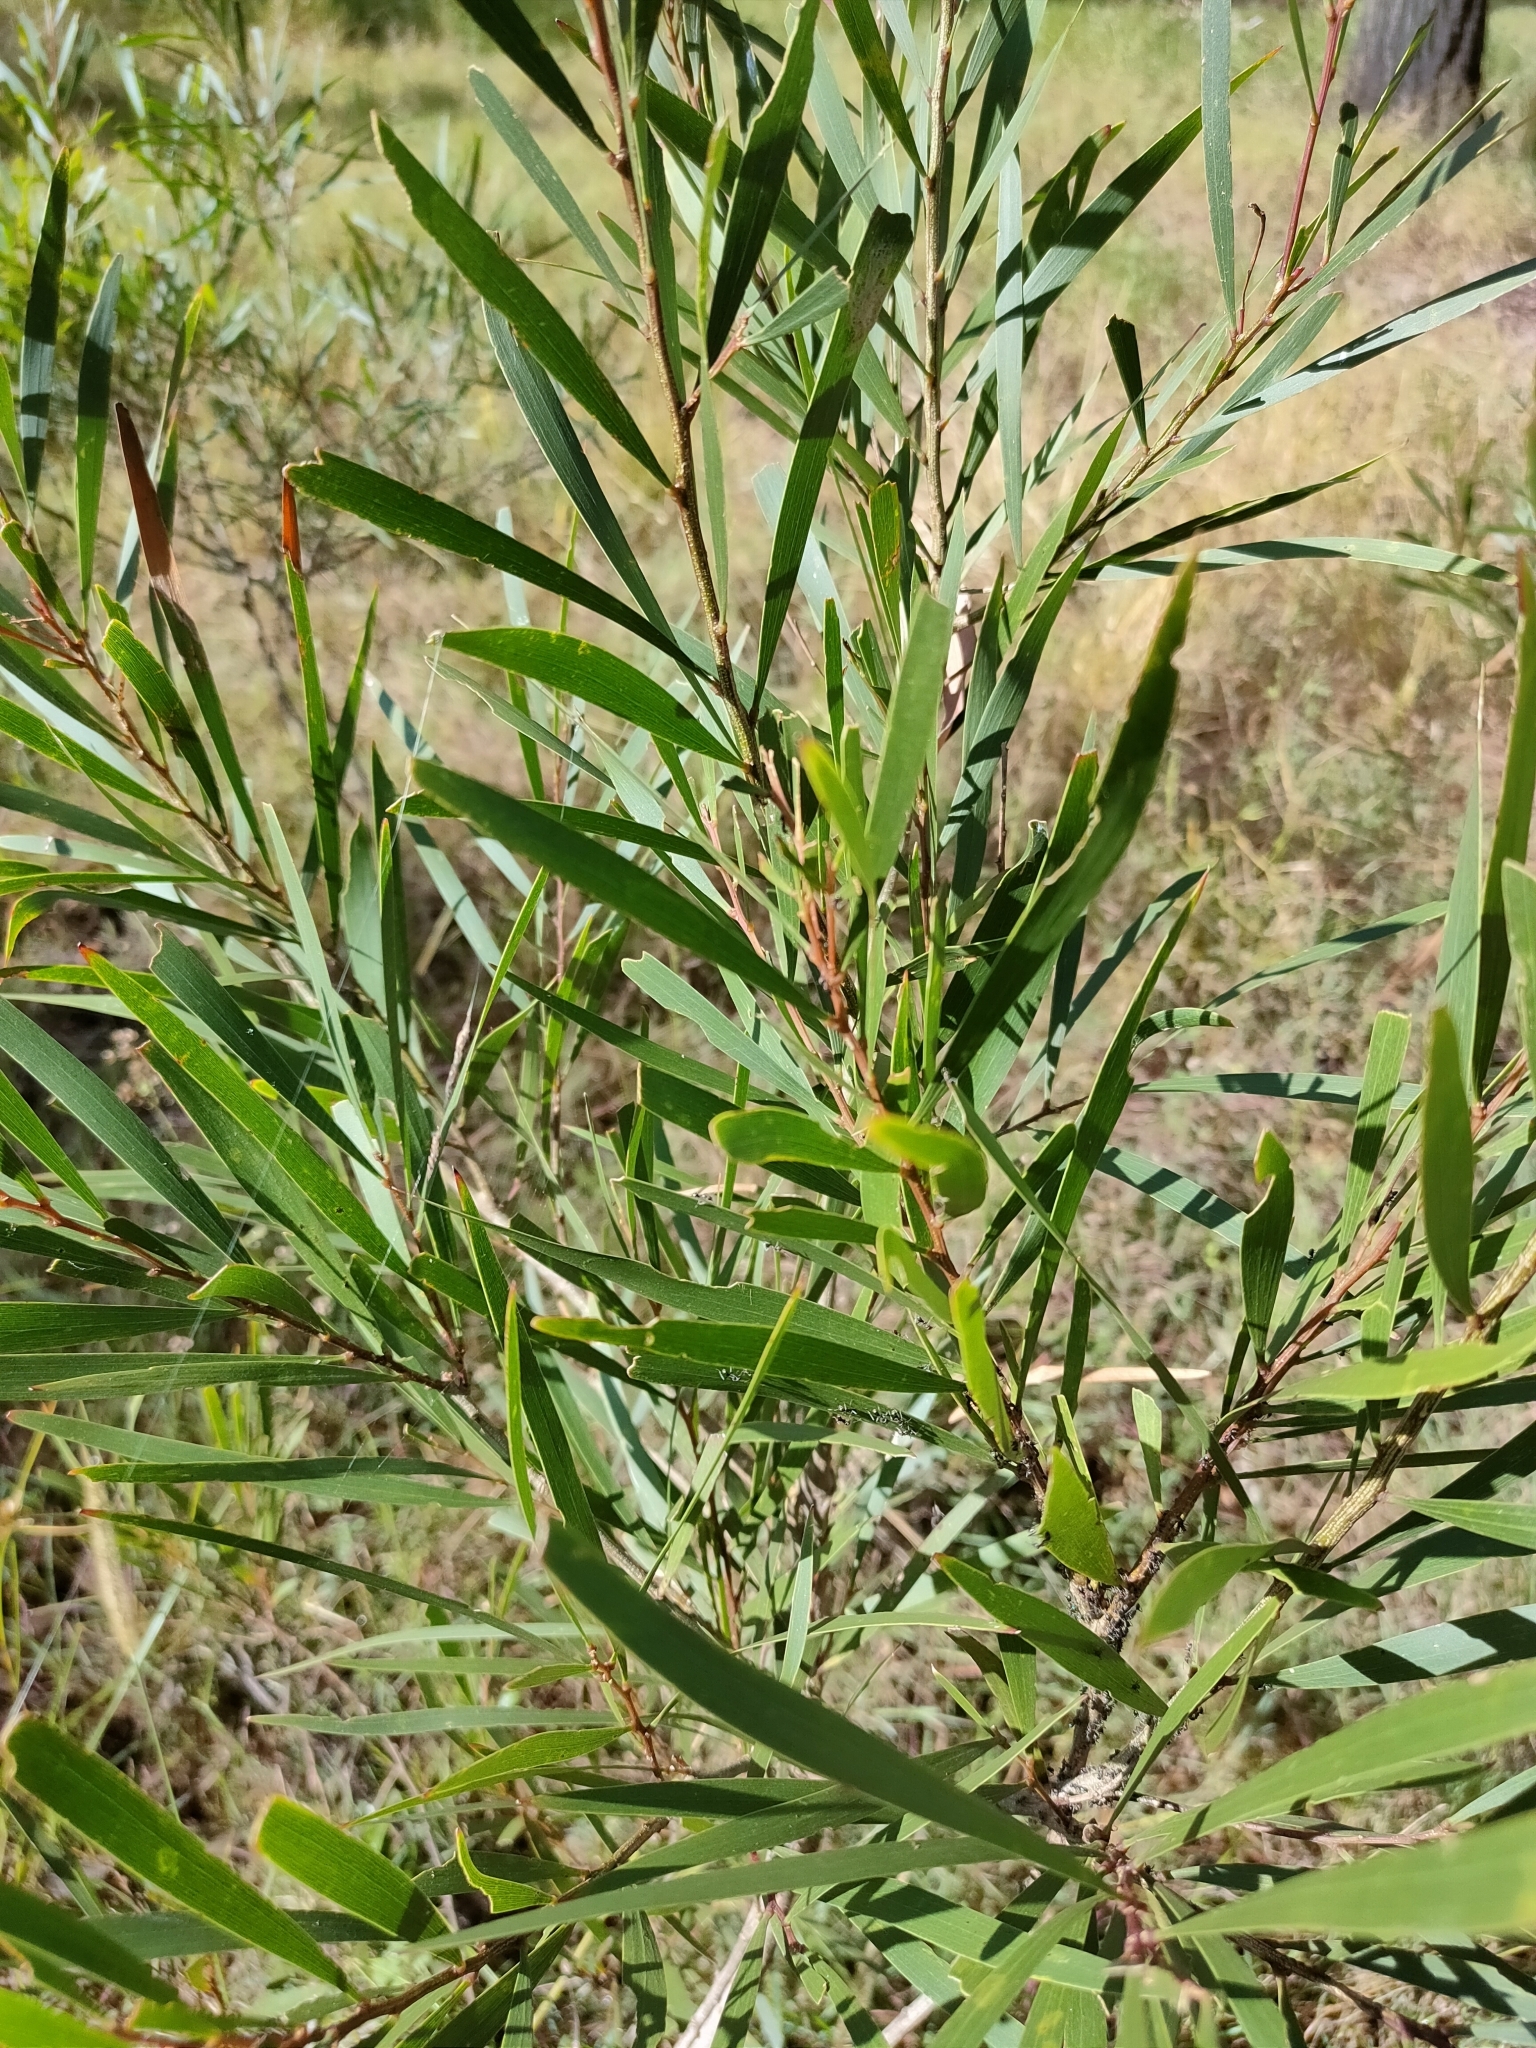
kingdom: Plantae
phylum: Tracheophyta
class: Magnoliopsida
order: Fabales
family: Fabaceae
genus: Acacia
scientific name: Acacia maidenii
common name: Maiden's wattle
